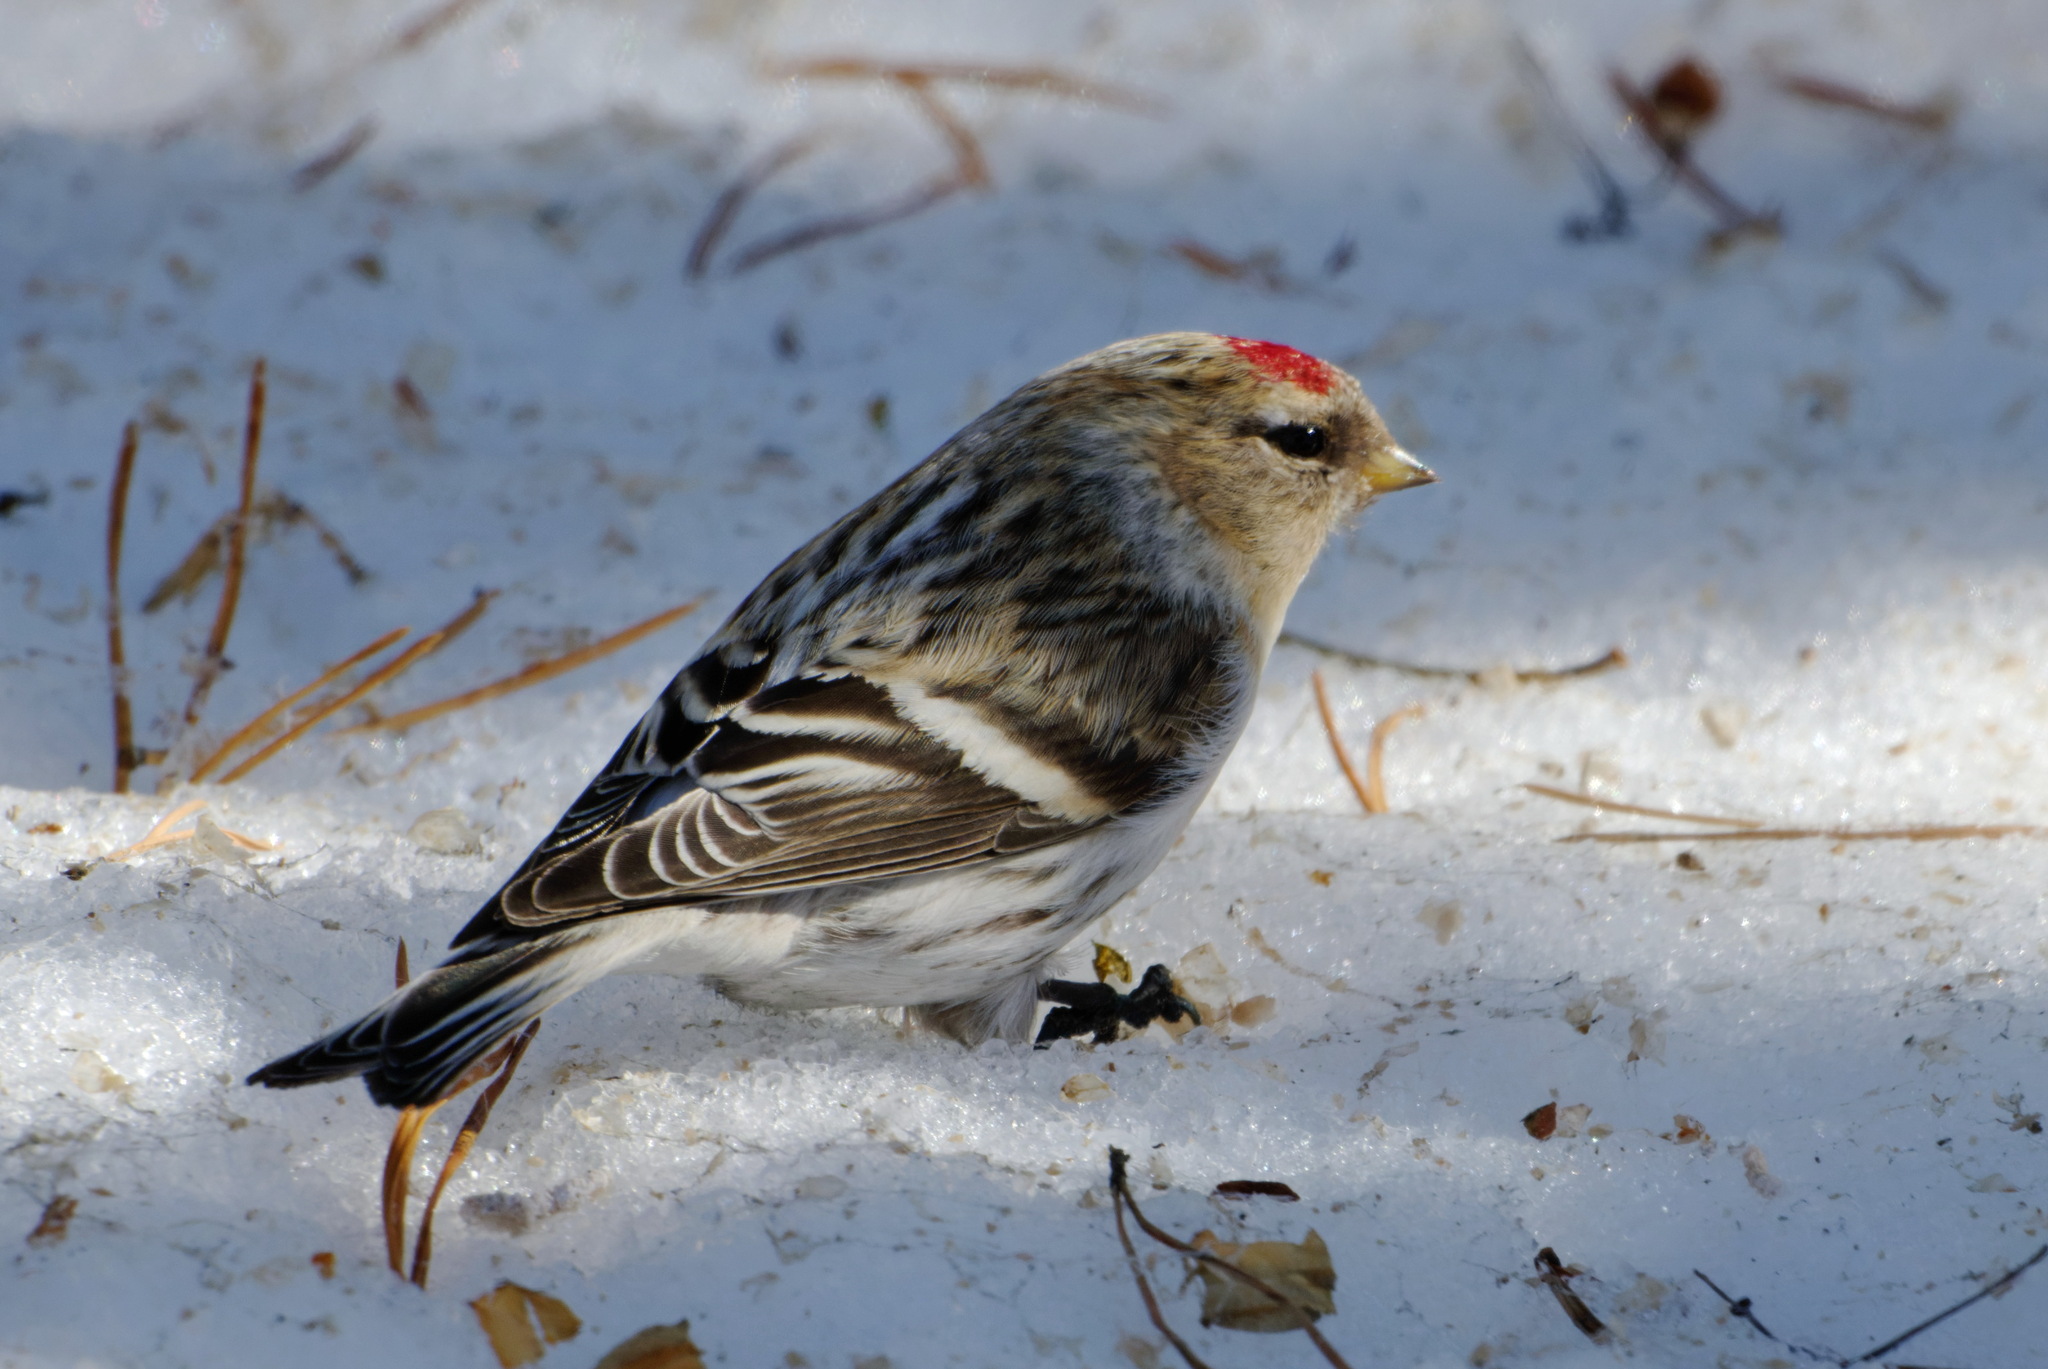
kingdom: Animalia
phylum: Chordata
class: Aves
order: Passeriformes
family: Fringillidae
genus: Acanthis
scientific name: Acanthis hornemanni
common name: Arctic redpoll
